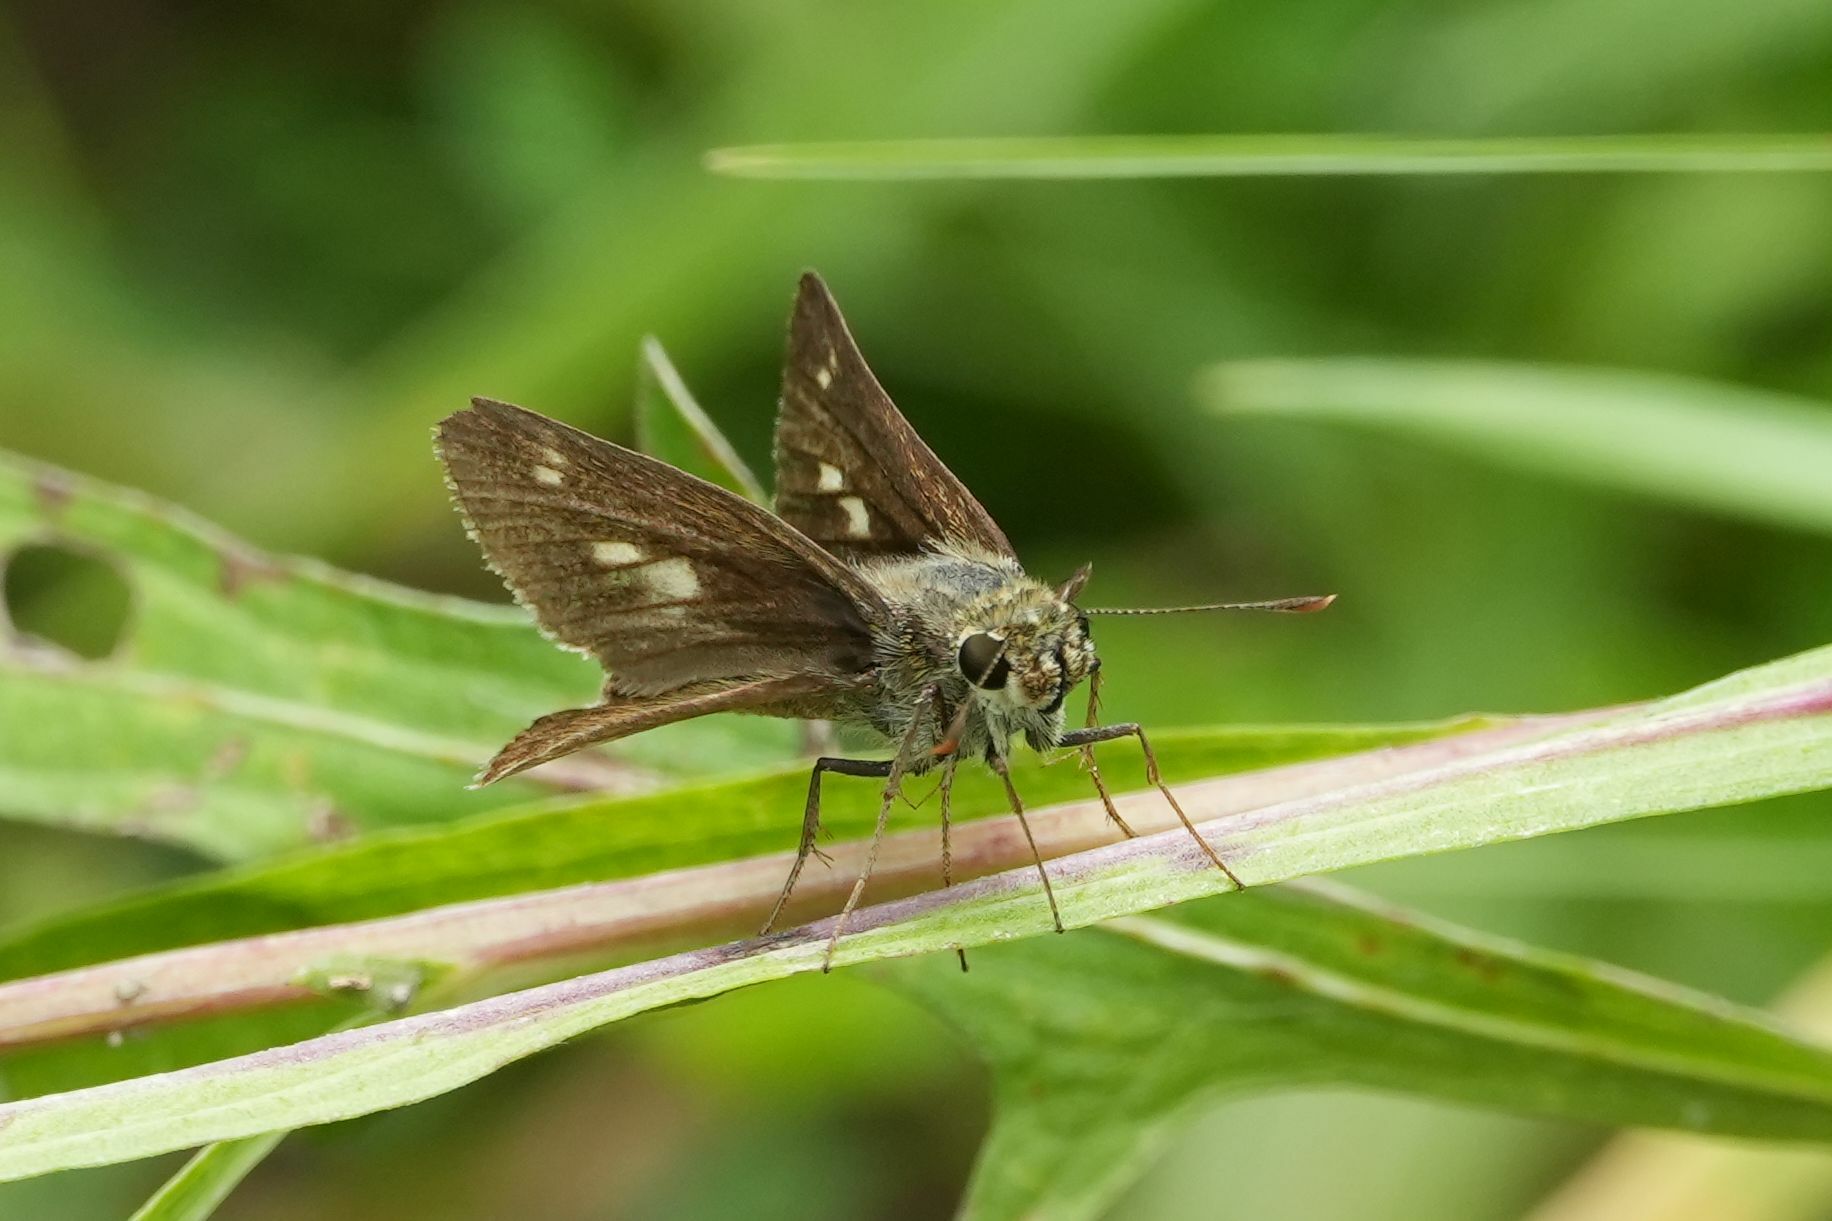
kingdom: Animalia
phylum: Arthropoda
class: Insecta
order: Lepidoptera
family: Hesperiidae
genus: Polites
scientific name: Polites egeremet
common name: Northern broken-dash
